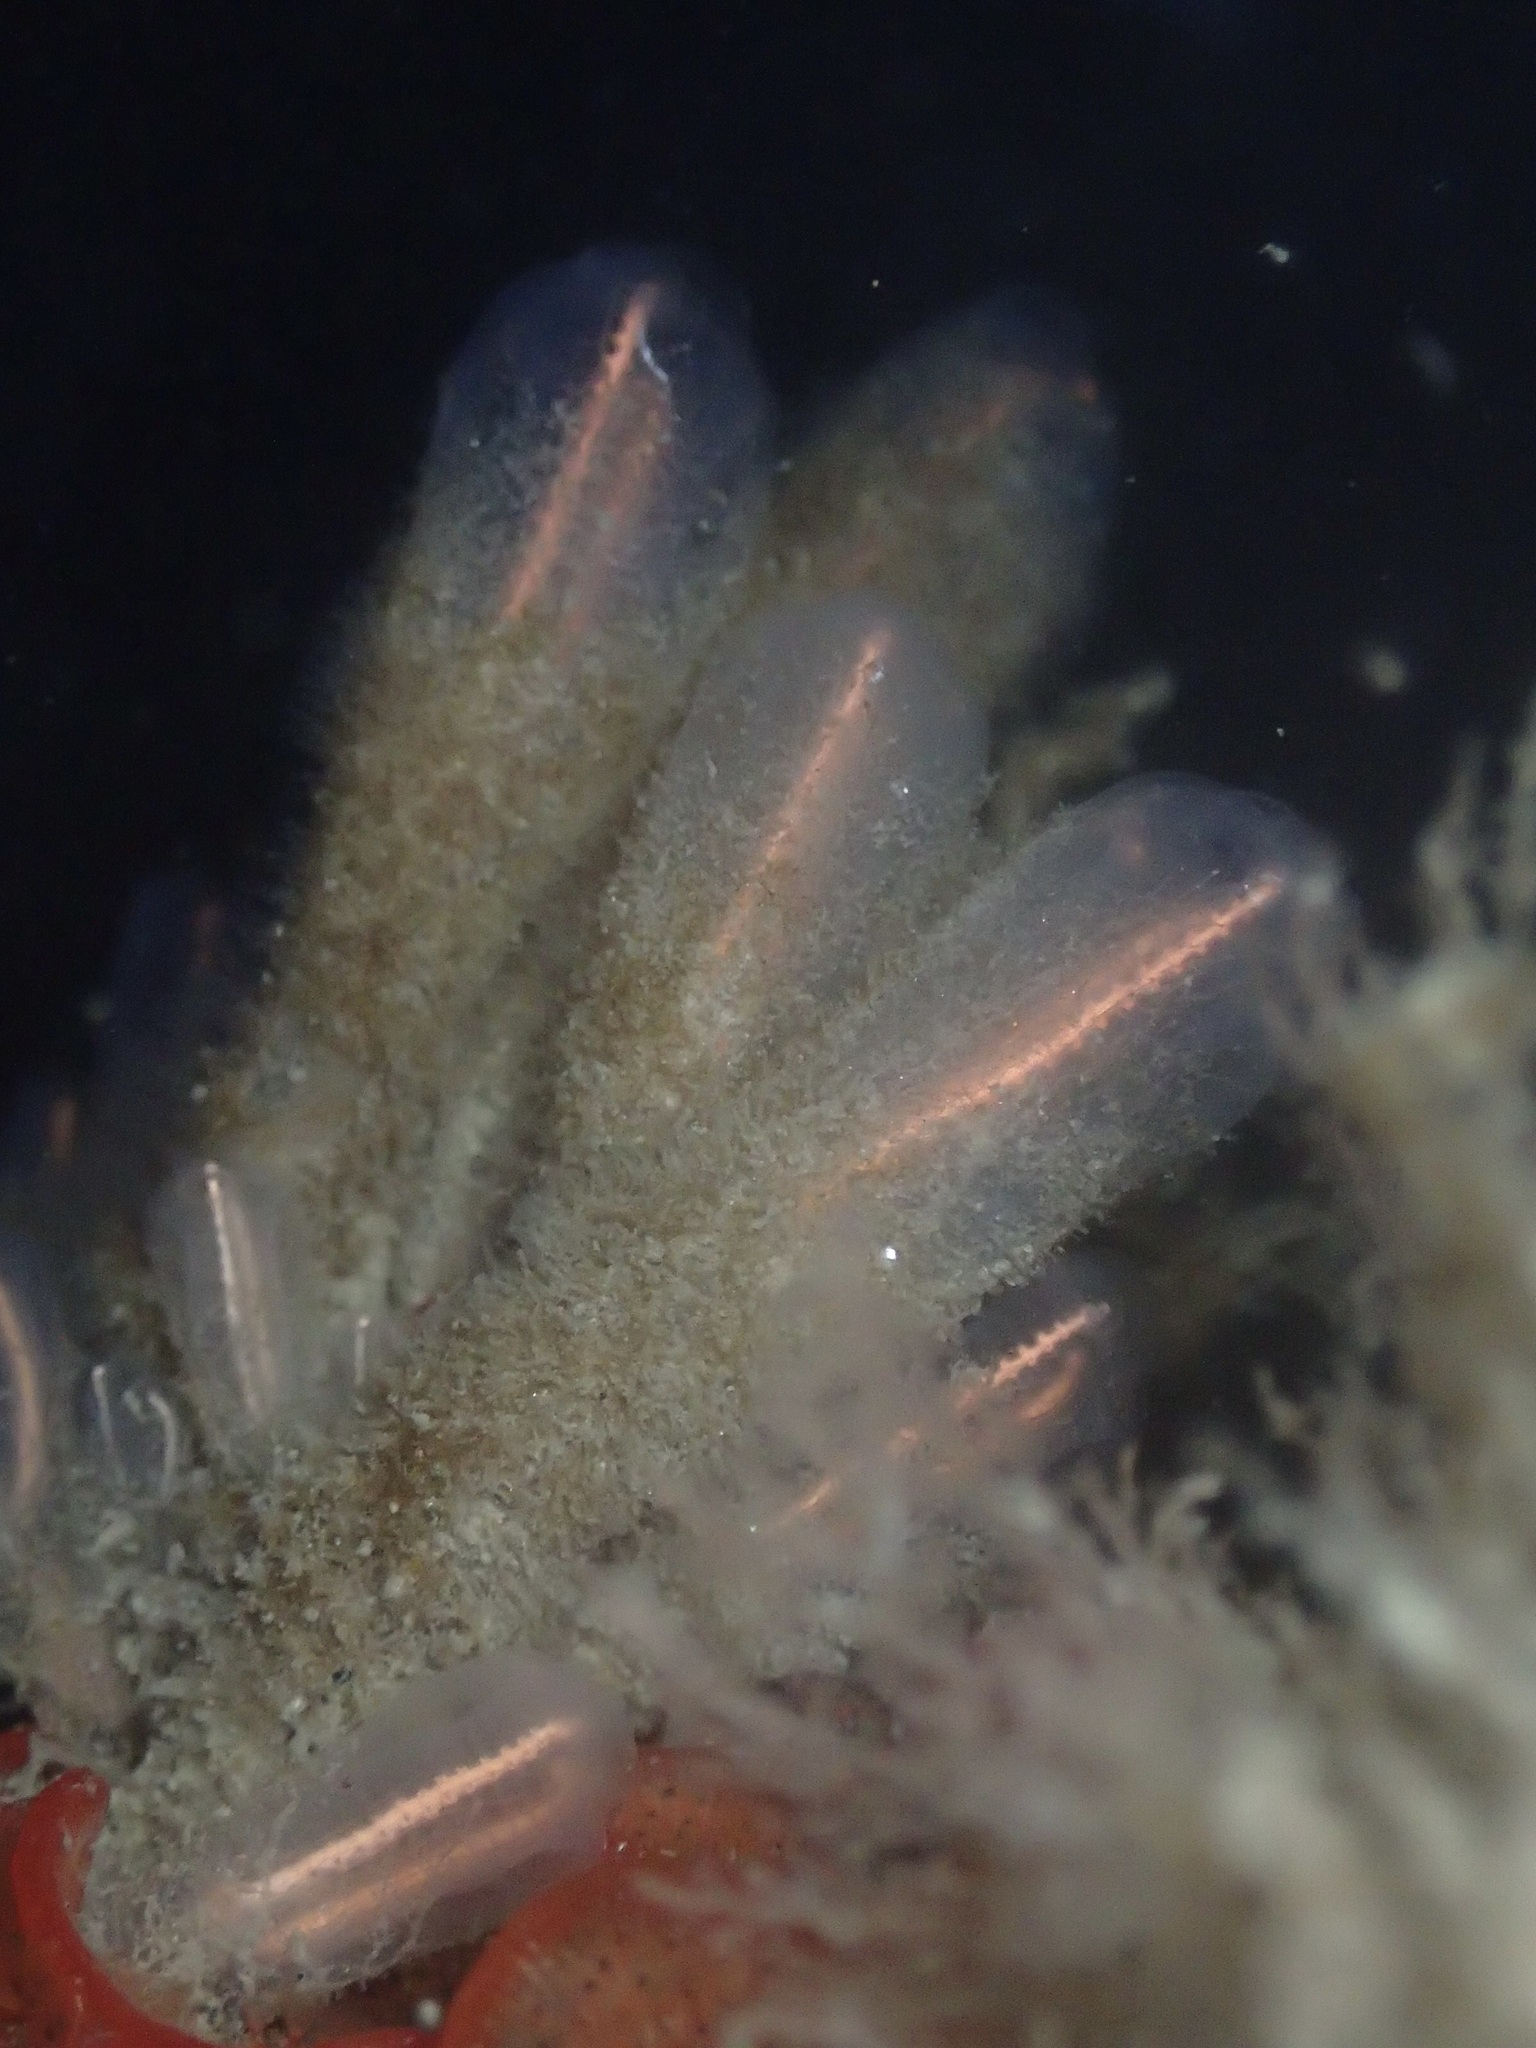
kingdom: Animalia
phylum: Chordata
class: Ascidiacea
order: Aplousobranchia
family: Clavelinidae
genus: Clavelina
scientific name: Clavelina huntsmani
